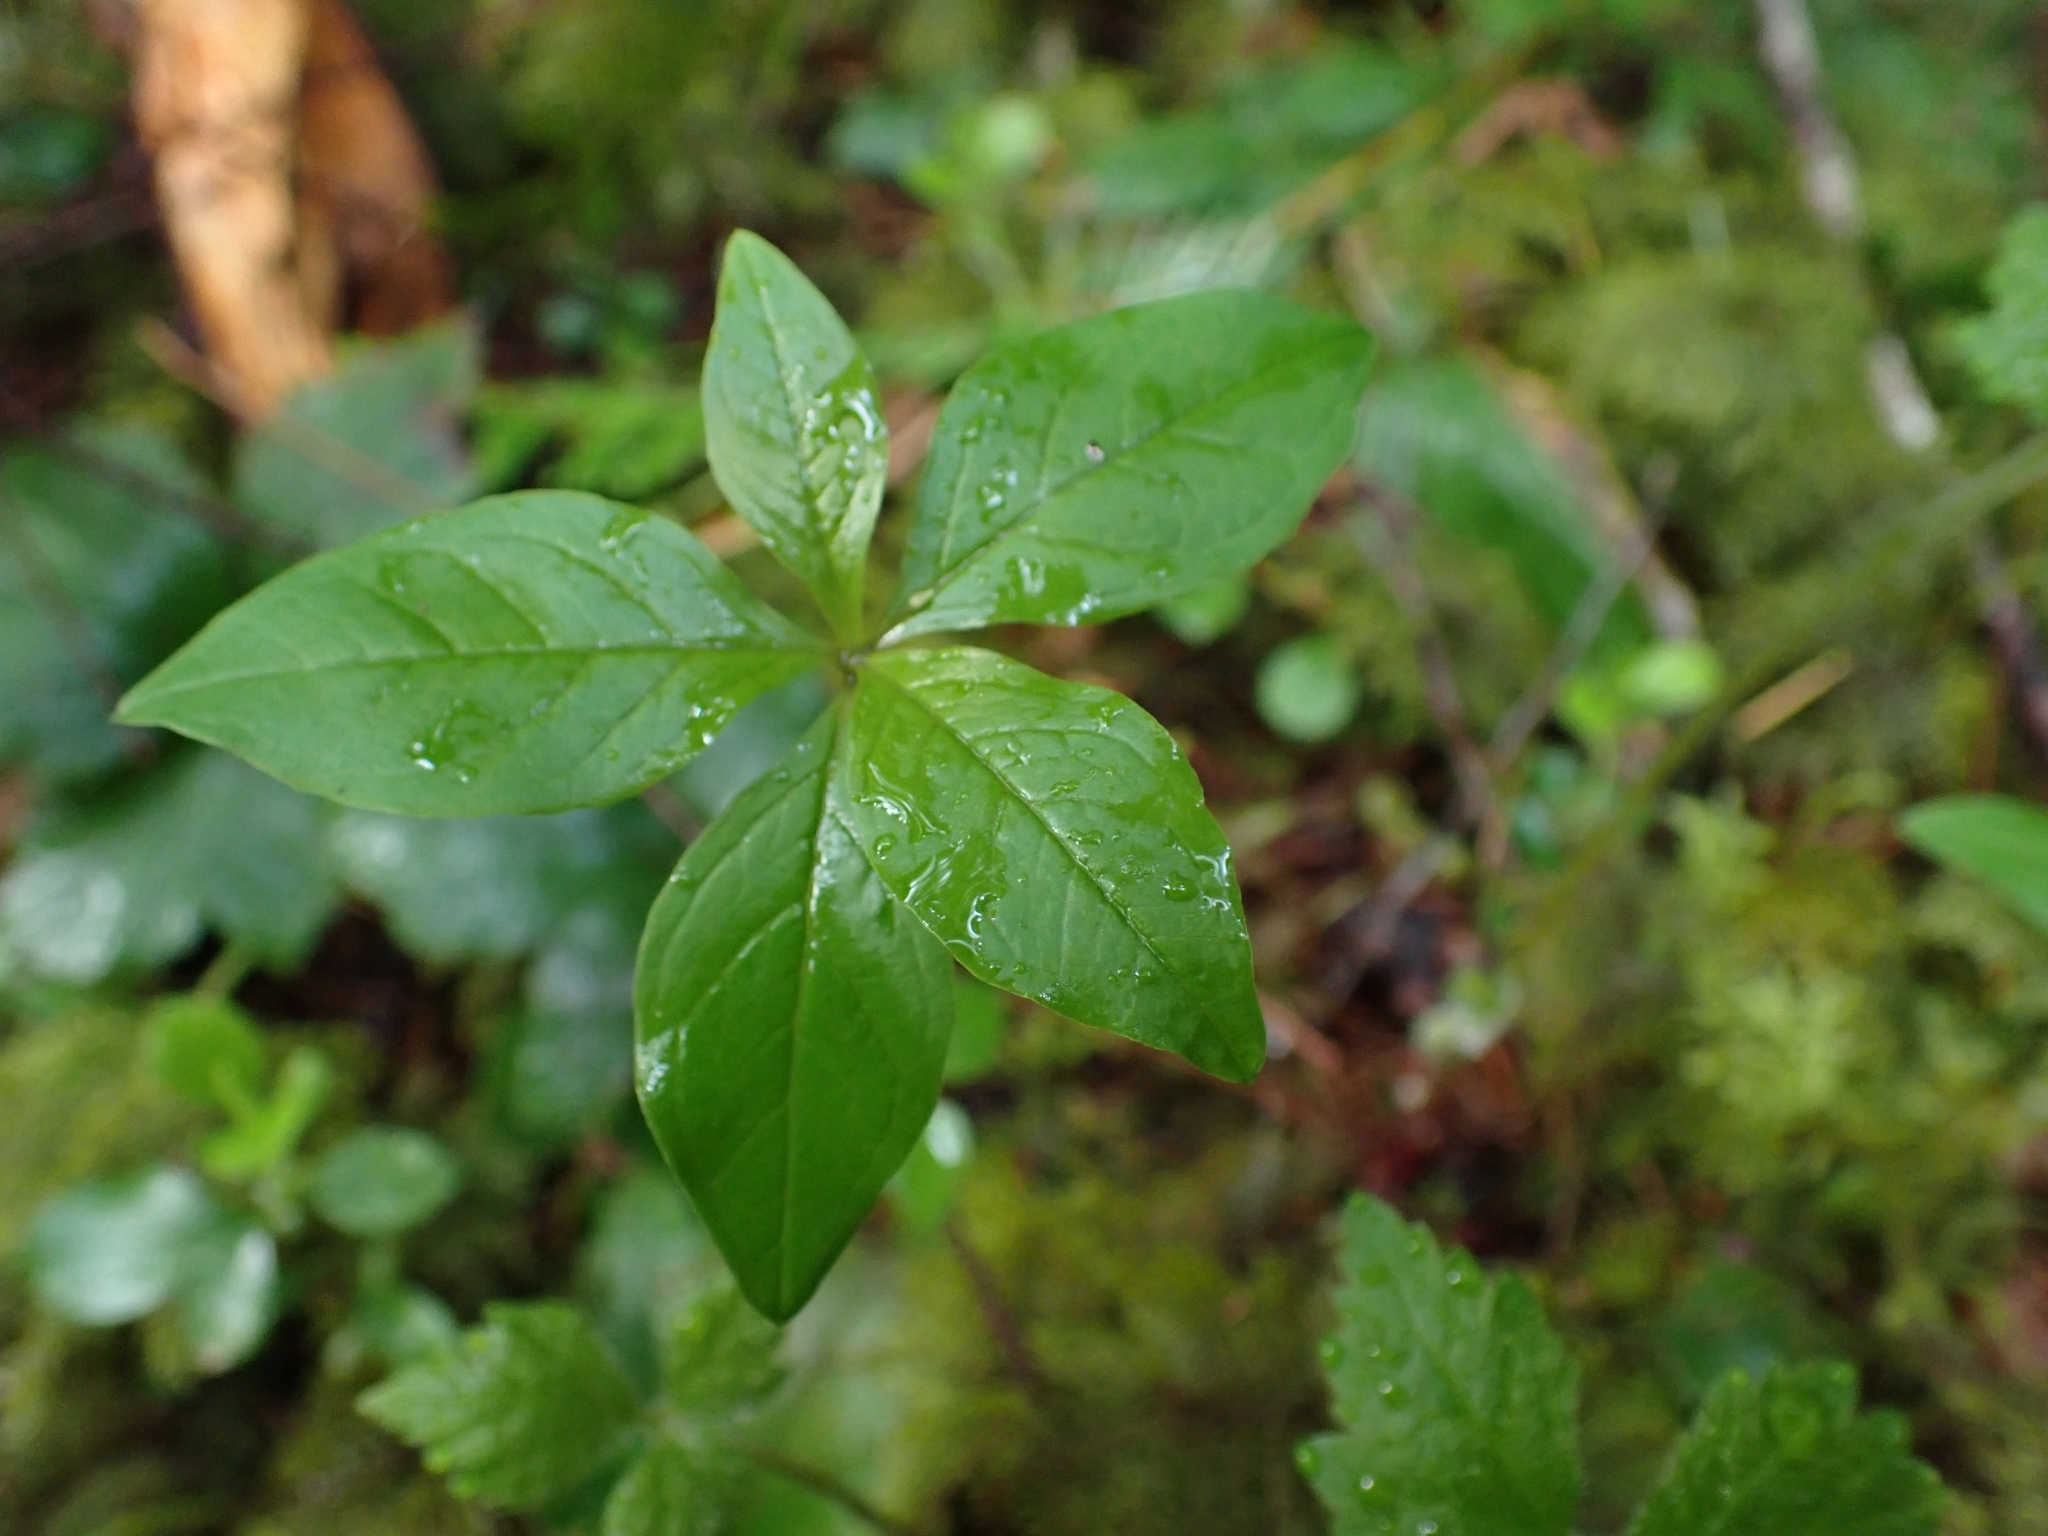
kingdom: Plantae
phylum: Tracheophyta
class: Magnoliopsida
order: Ericales
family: Primulaceae
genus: Lysimachia
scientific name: Lysimachia latifolia
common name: Pacific starflower
